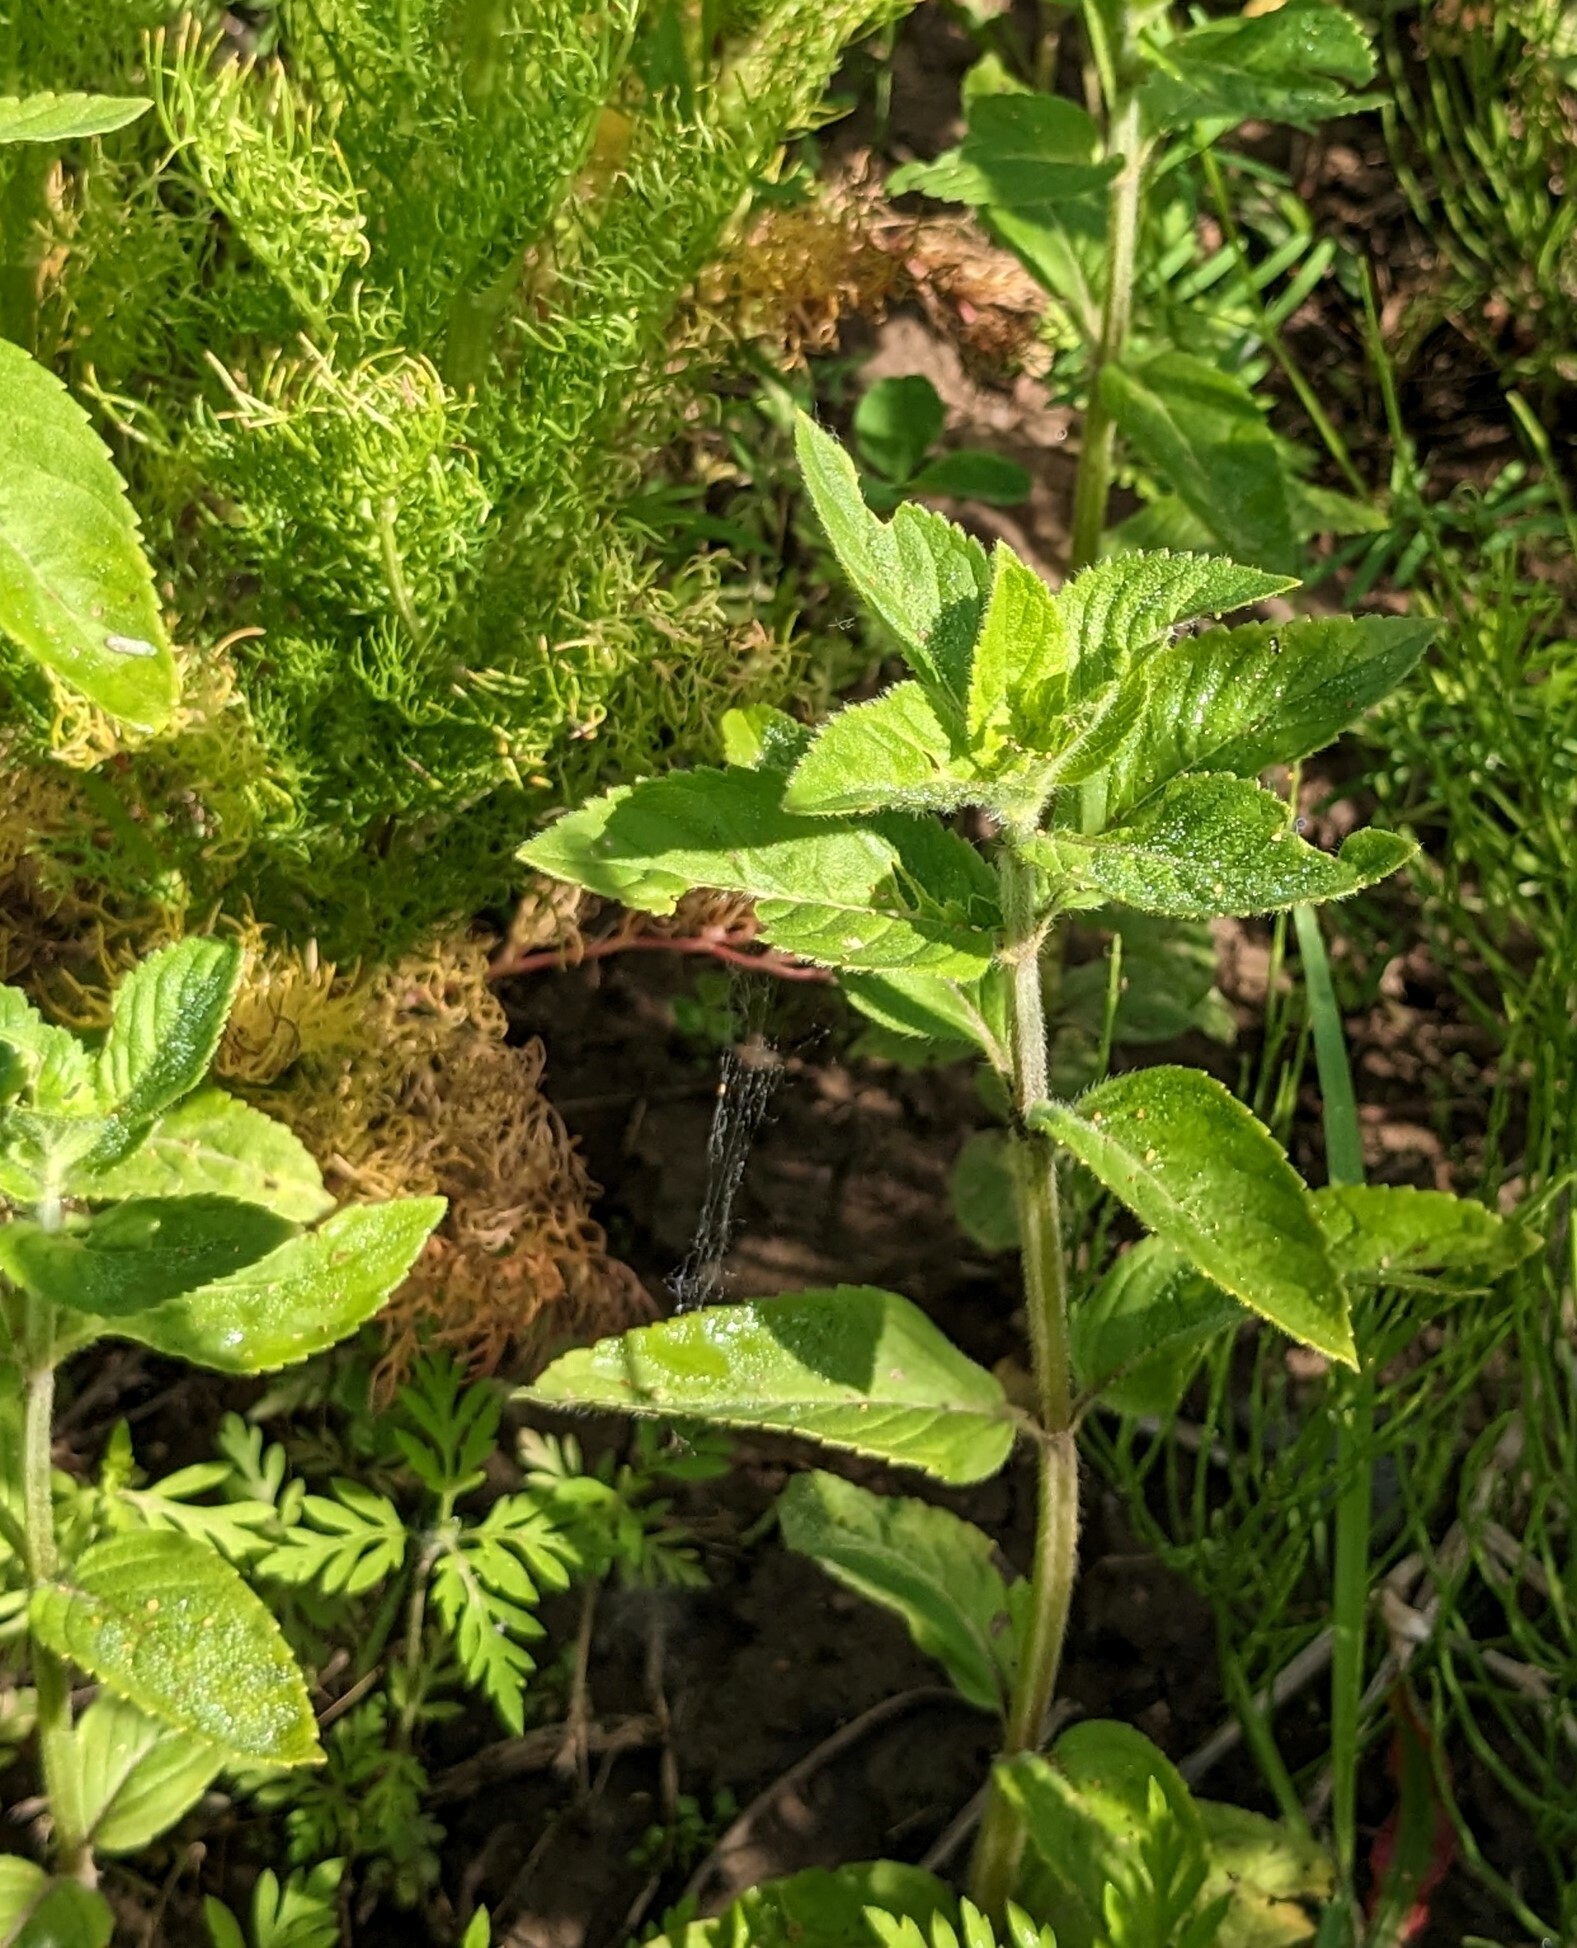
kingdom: Plantae
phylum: Tracheophyta
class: Magnoliopsida
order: Lamiales
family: Lamiaceae
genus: Mentha
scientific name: Mentha canadensis
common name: American corn mint
